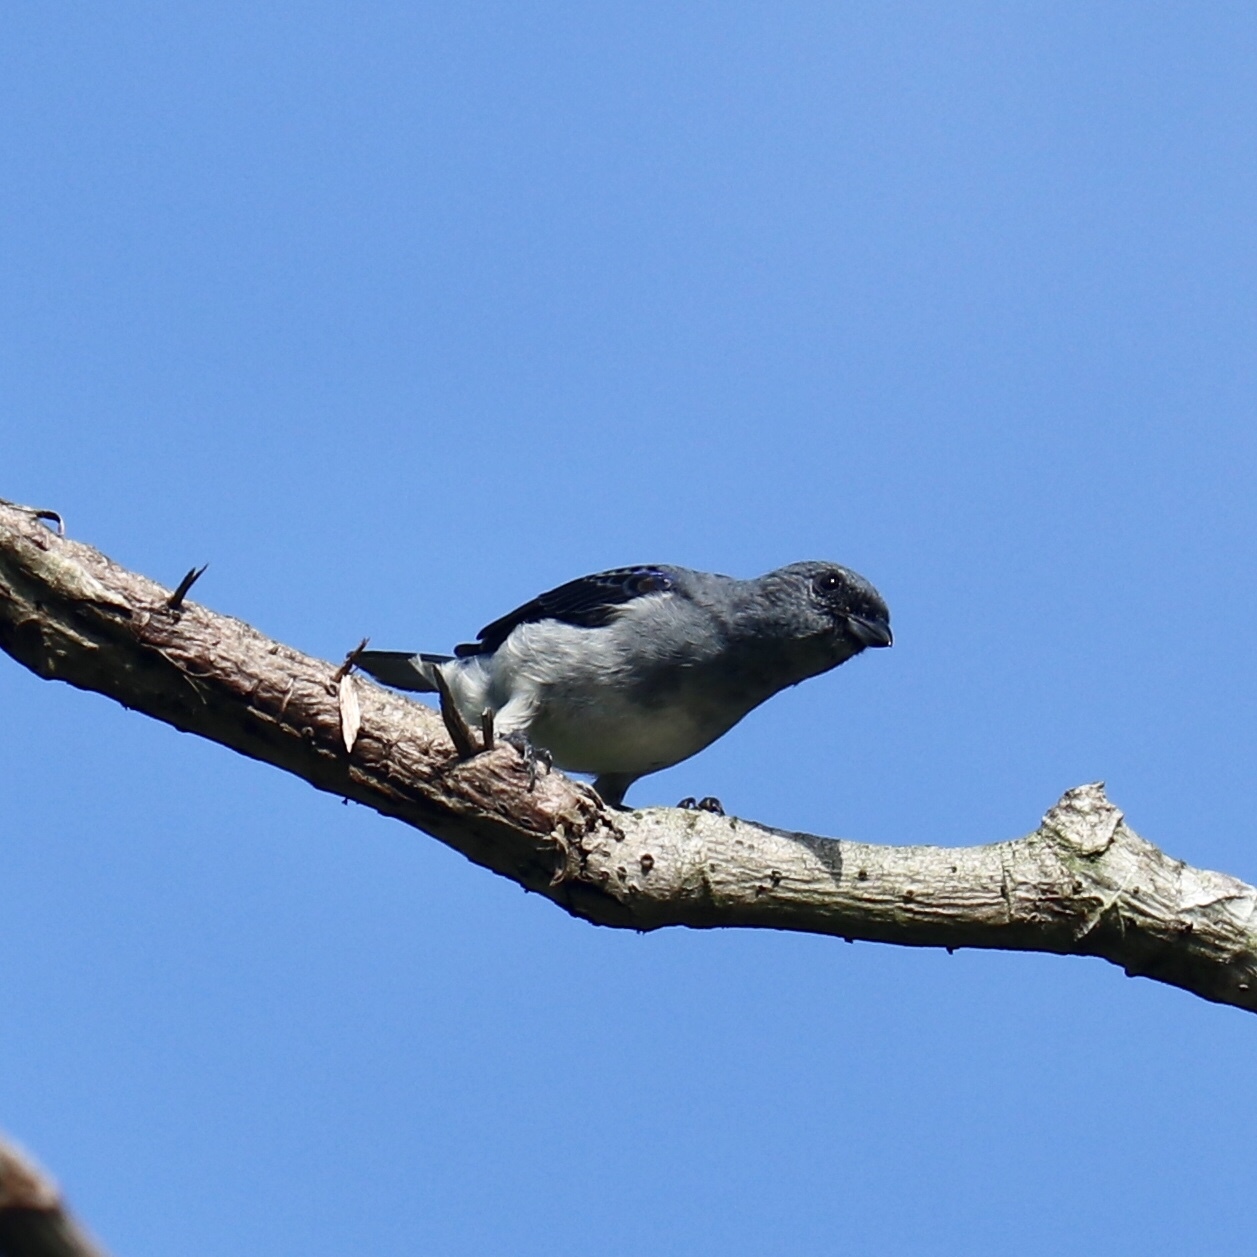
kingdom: Animalia
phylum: Chordata
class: Aves
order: Passeriformes
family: Thraupidae
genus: Tangara
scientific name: Tangara inornata
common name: Plain-colored tanager
